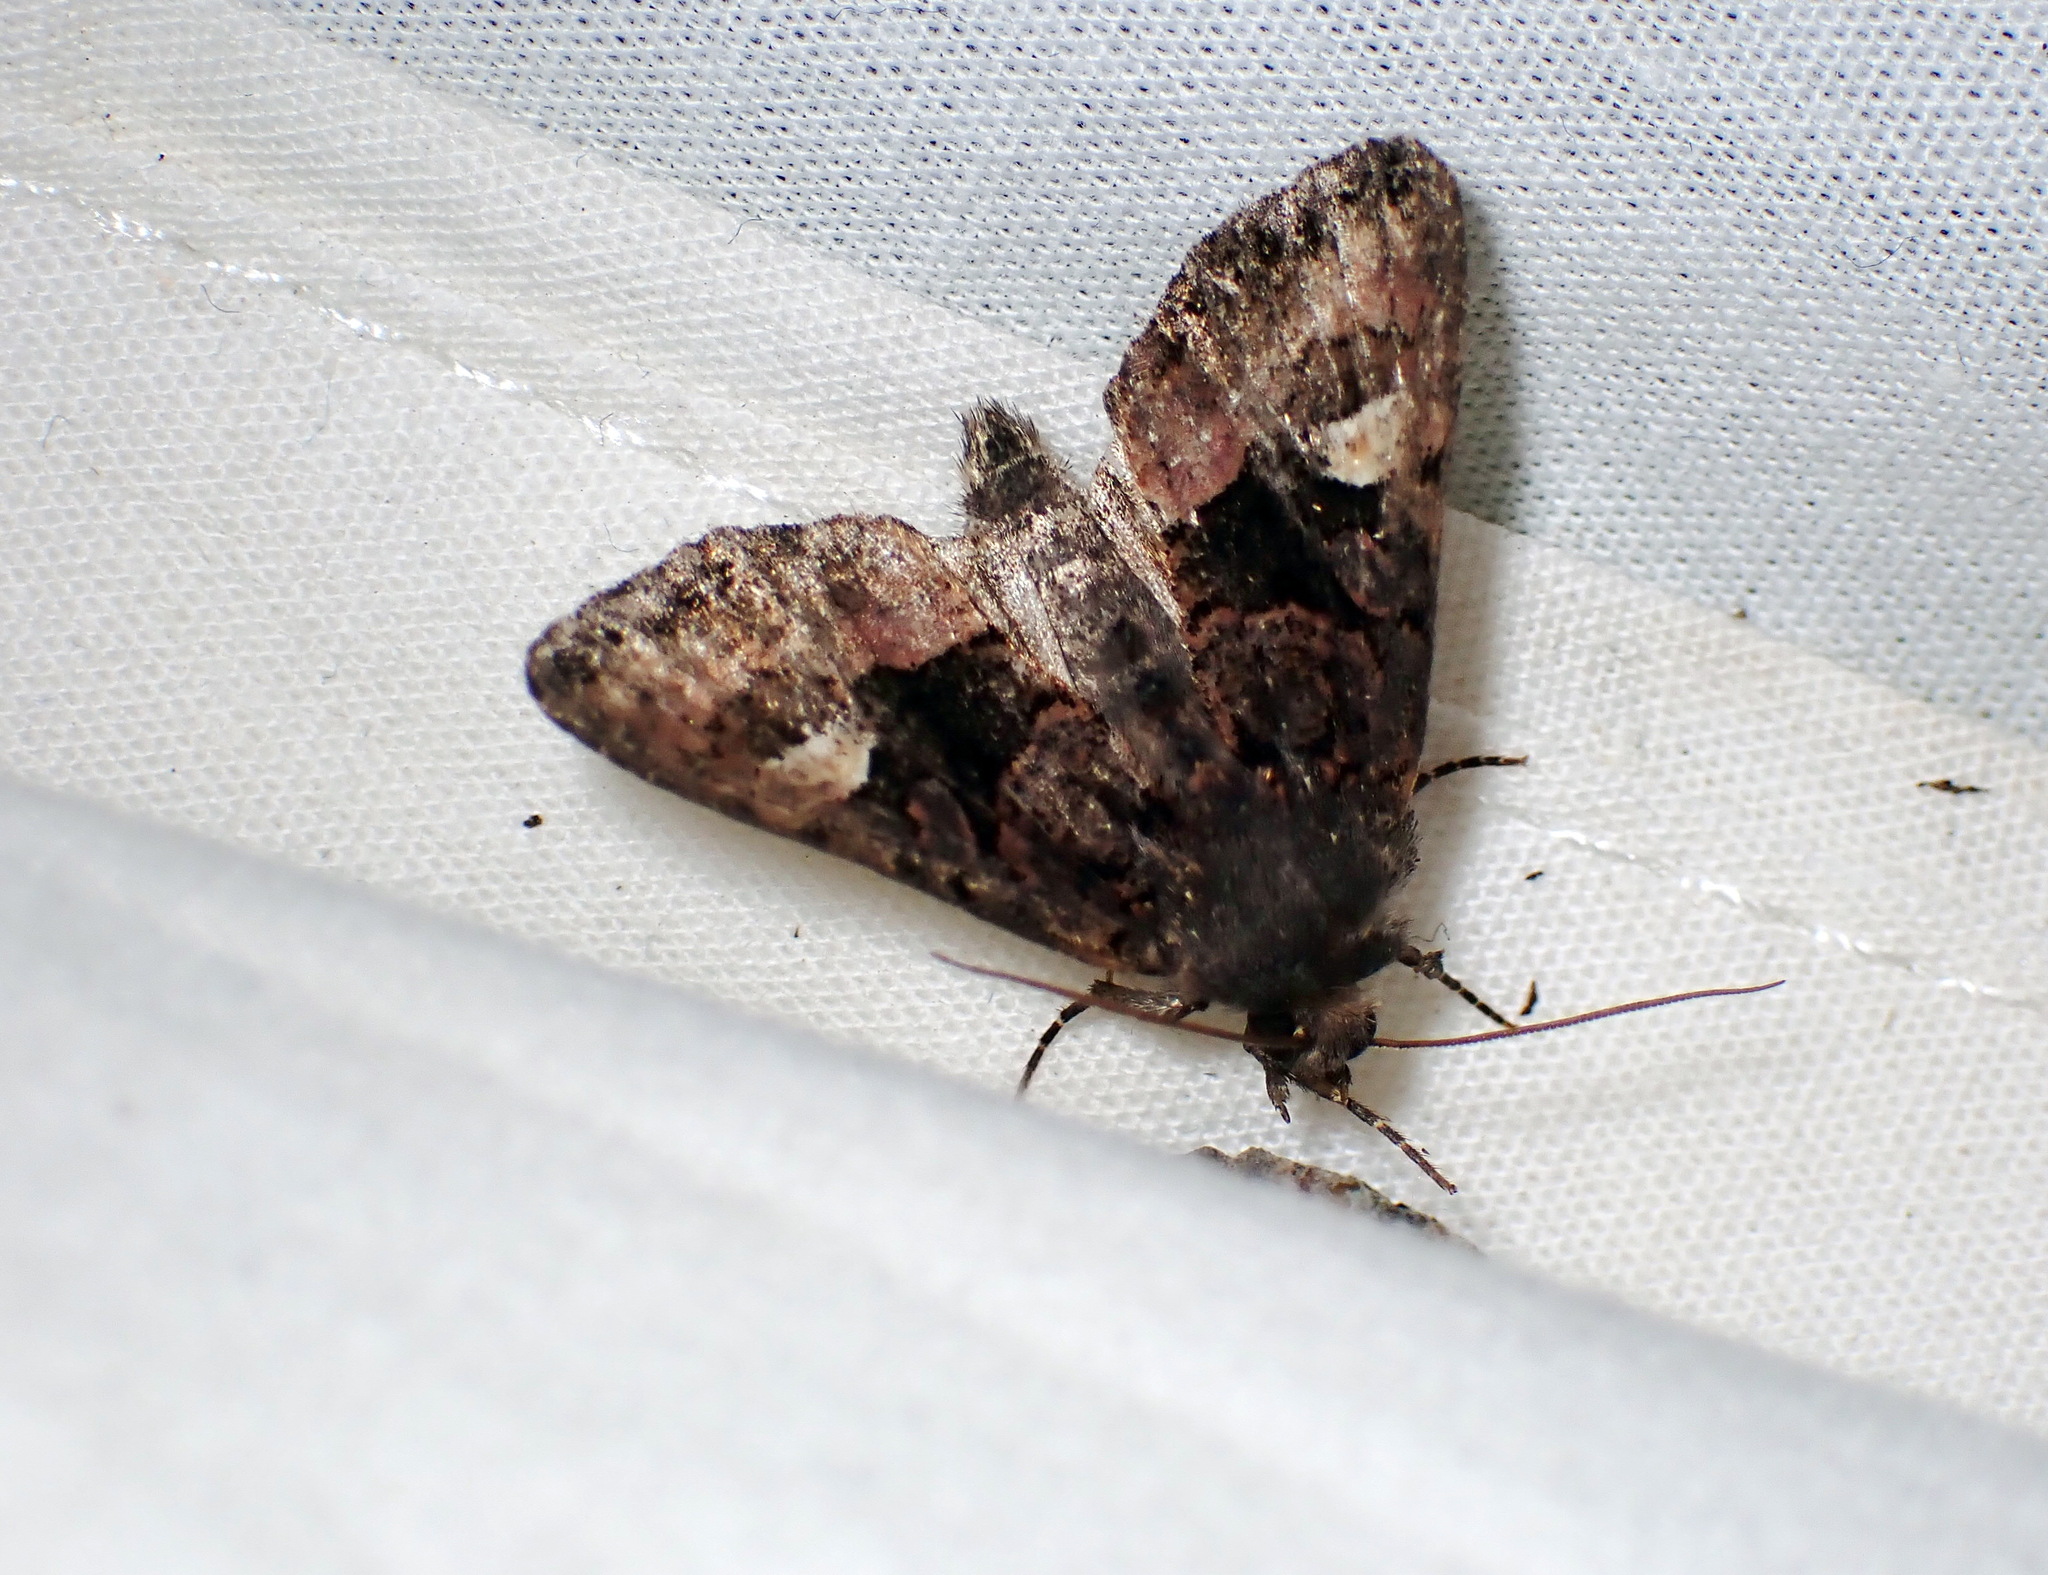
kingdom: Animalia
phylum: Arthropoda
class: Insecta
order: Lepidoptera
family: Noctuidae
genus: Euplexia
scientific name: Euplexia benesimilis
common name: American angle shades
